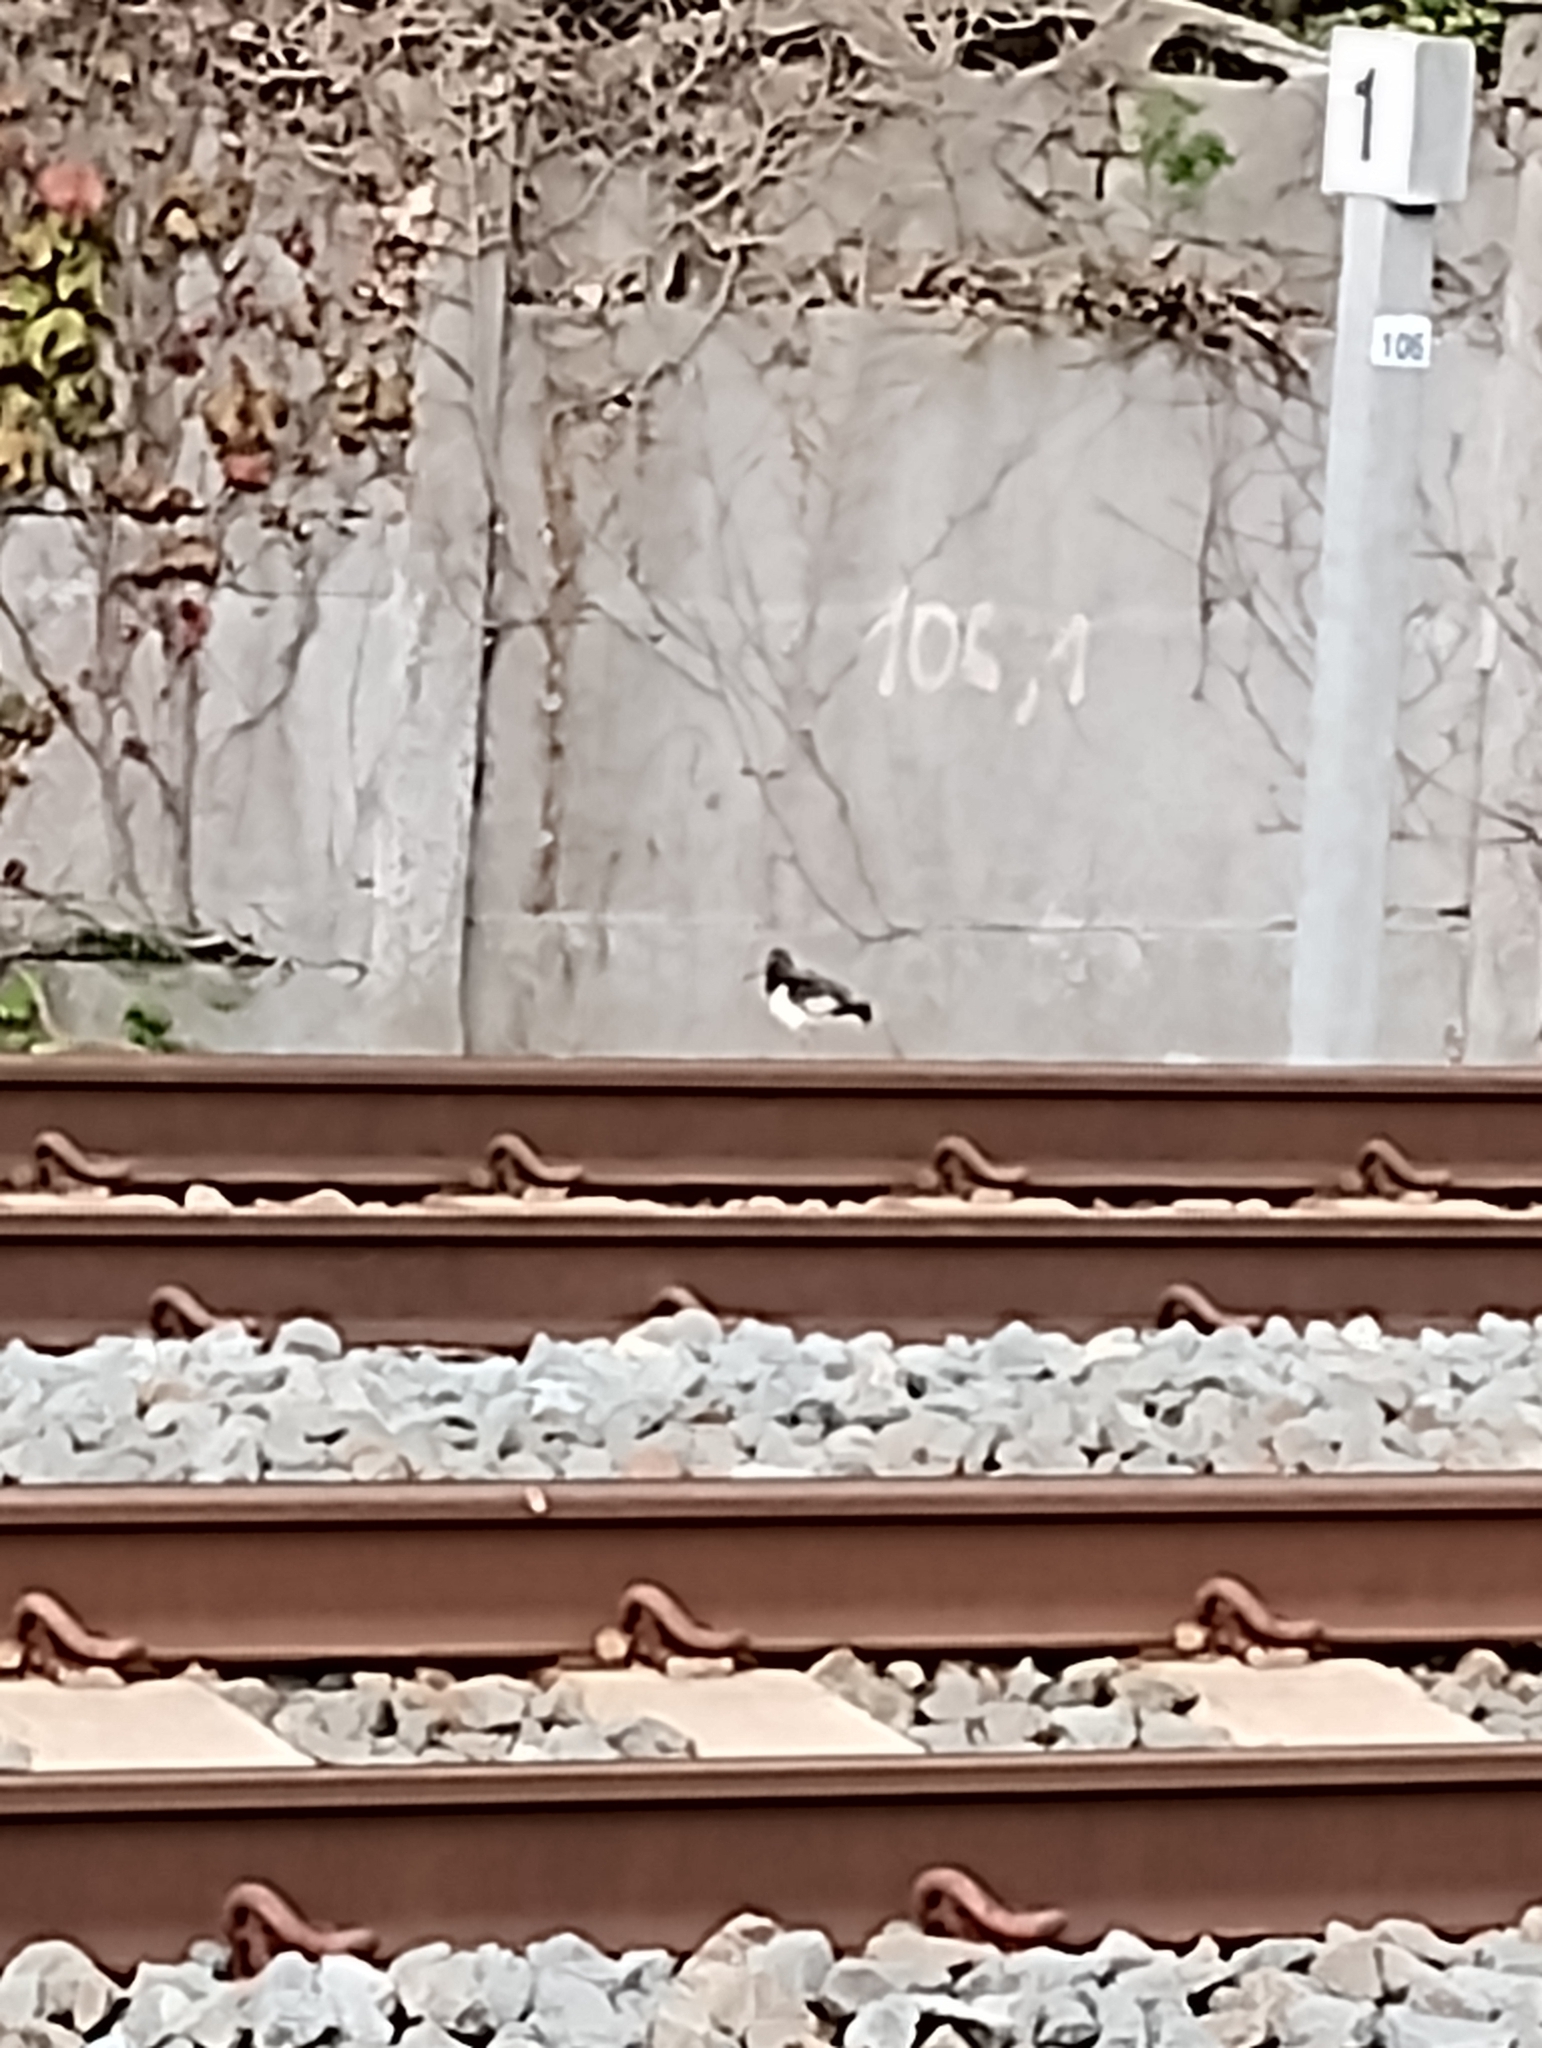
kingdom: Animalia
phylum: Chordata
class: Aves
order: Charadriiformes
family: Haematopodidae
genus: Haematopus
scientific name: Haematopus ostralegus
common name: Eurasian oystercatcher
